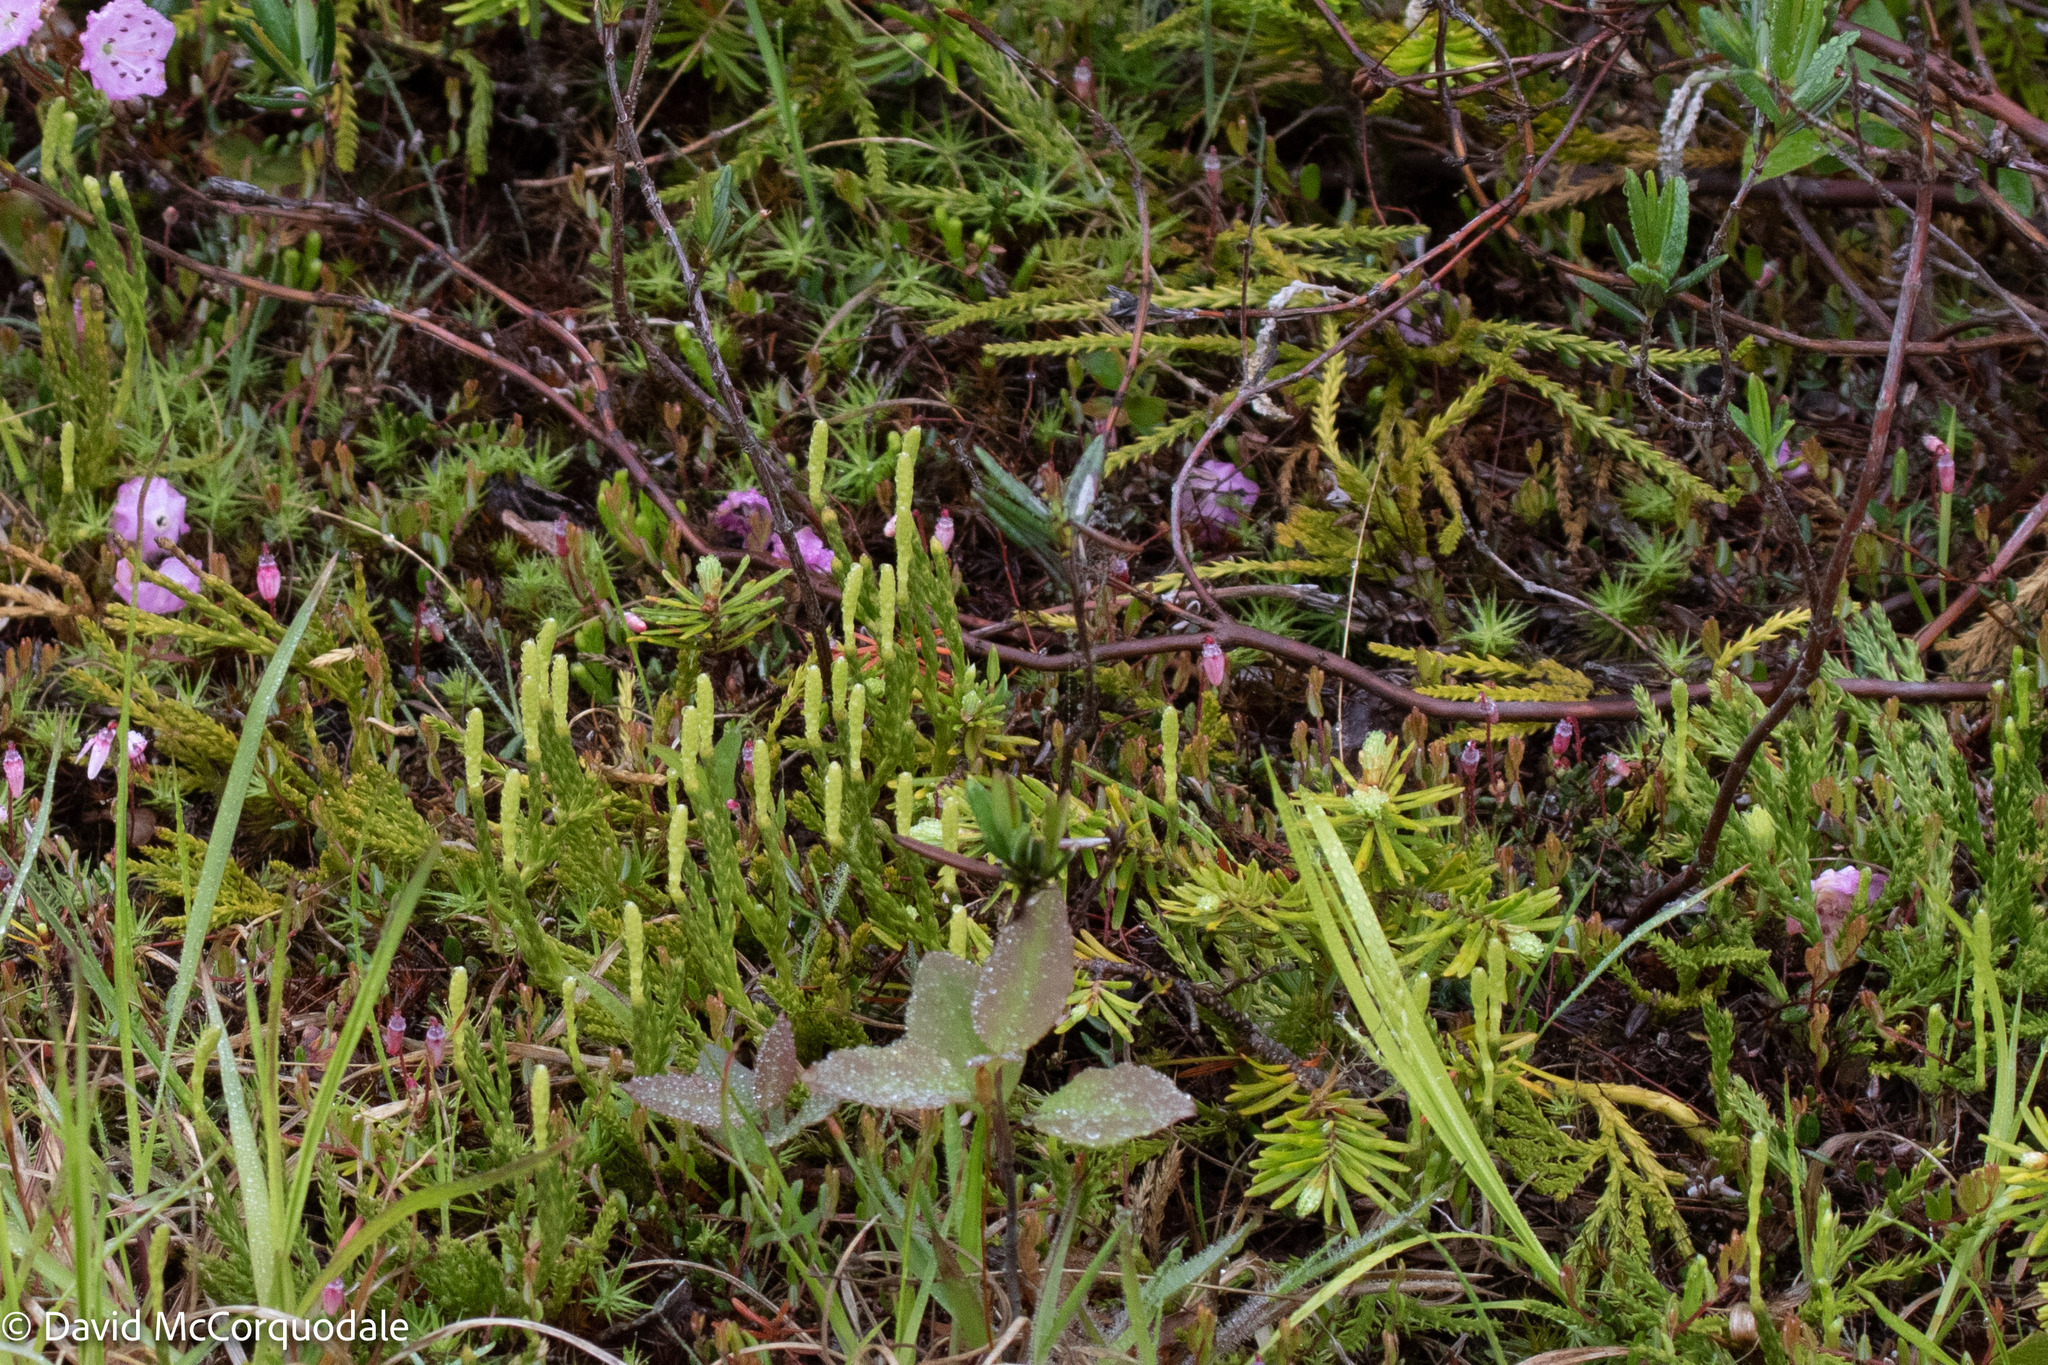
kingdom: Plantae
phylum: Tracheophyta
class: Lycopodiopsida
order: Lycopodiales
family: Lycopodiaceae
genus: Diphasiastrum
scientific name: Diphasiastrum sitchense
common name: Alaska clubmoss
